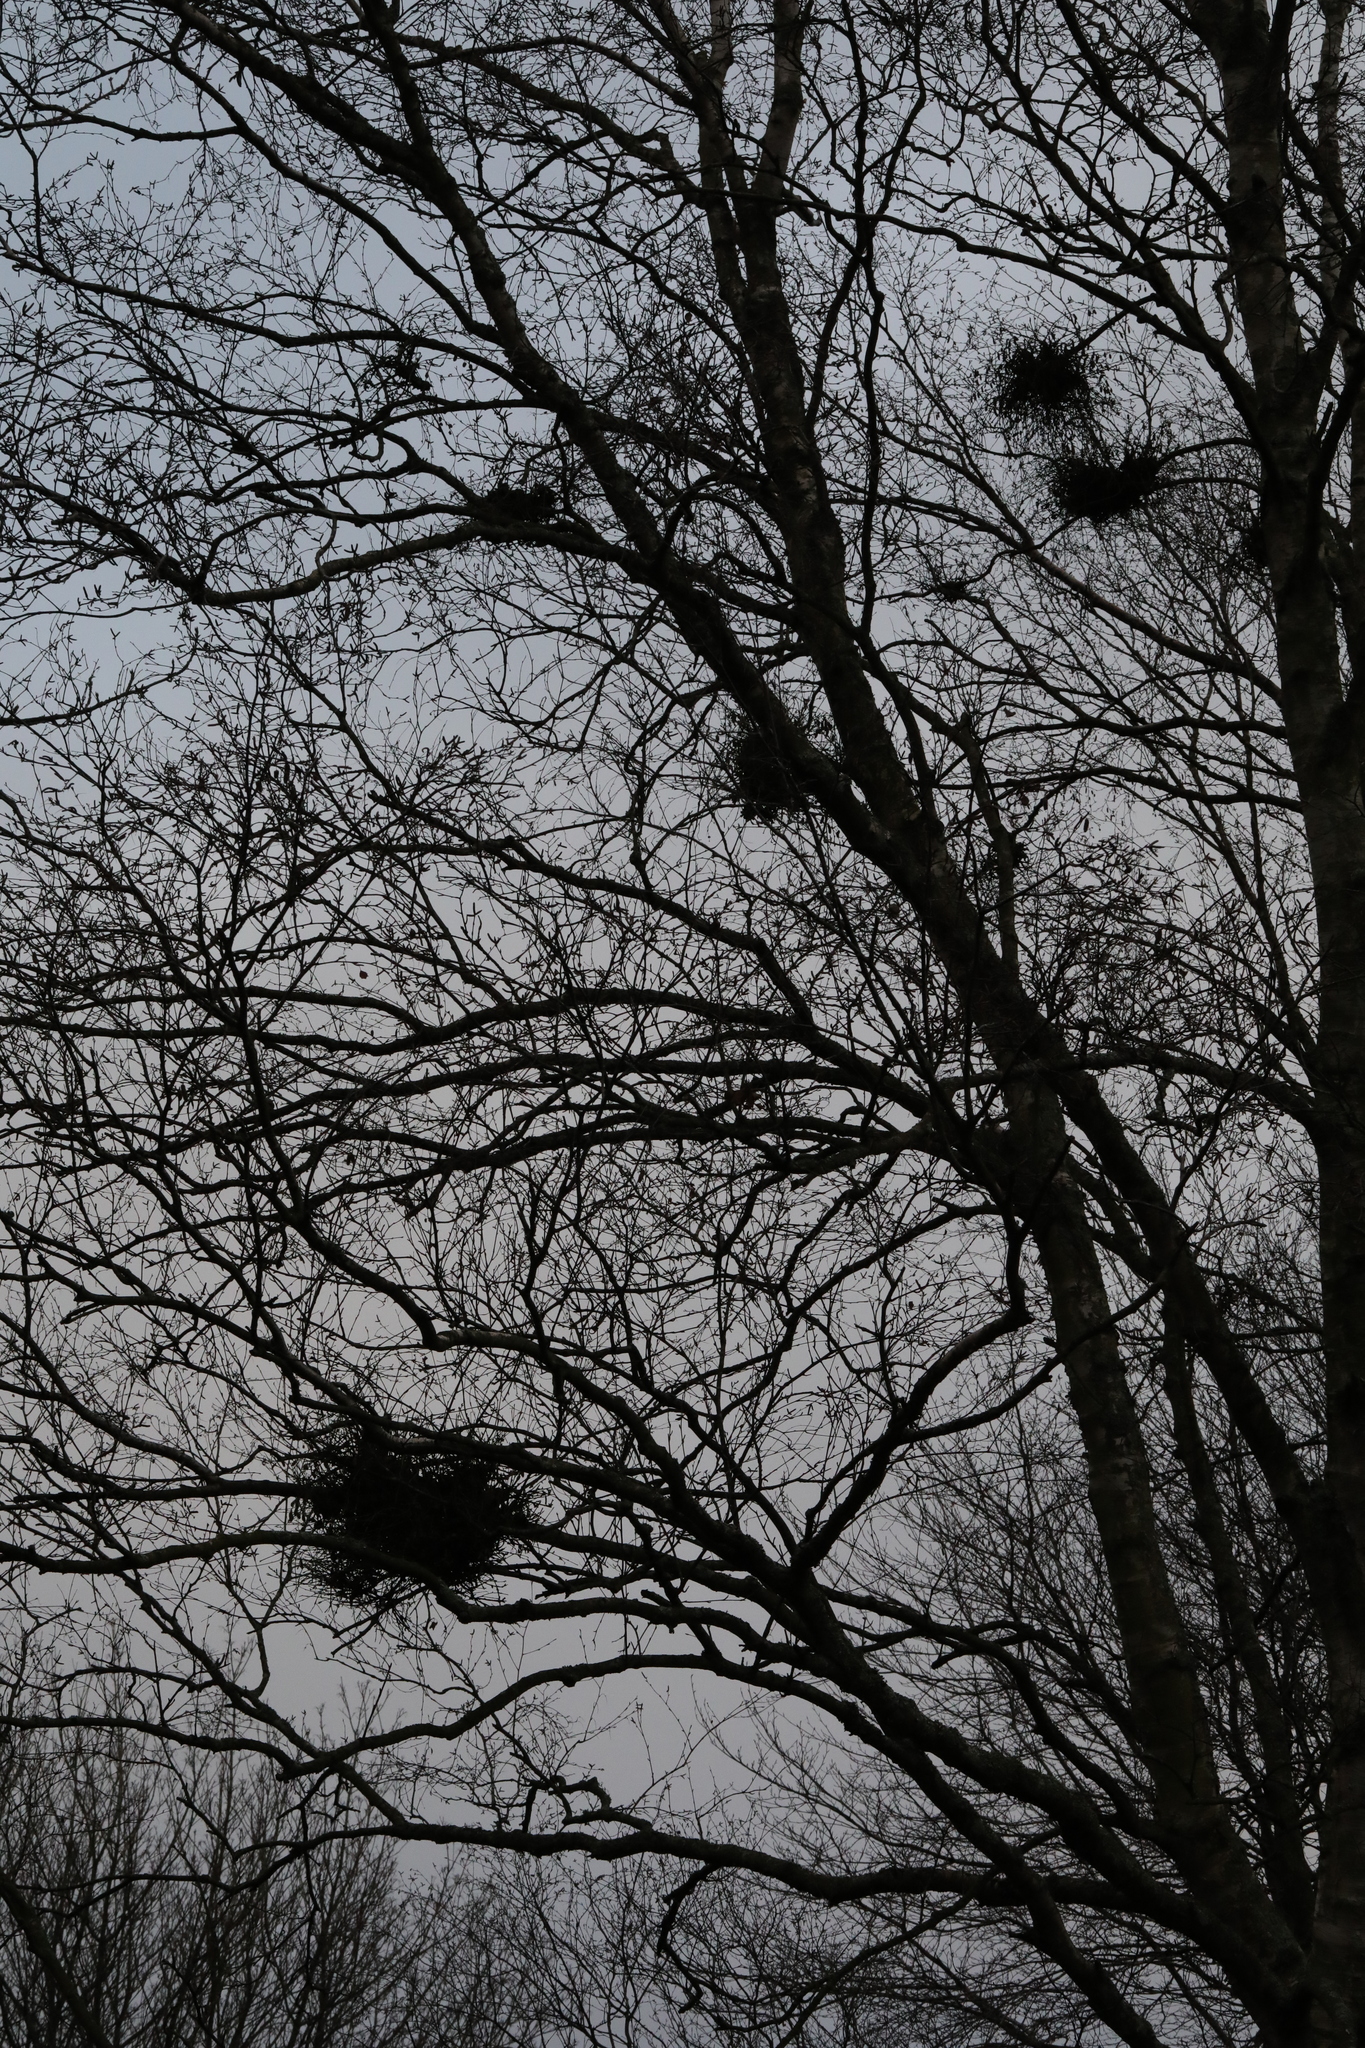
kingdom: Fungi
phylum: Ascomycota
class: Taphrinomycetes
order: Taphrinales
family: Taphrinaceae
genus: Taphrina
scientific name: Taphrina betulina
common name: Birch besom
